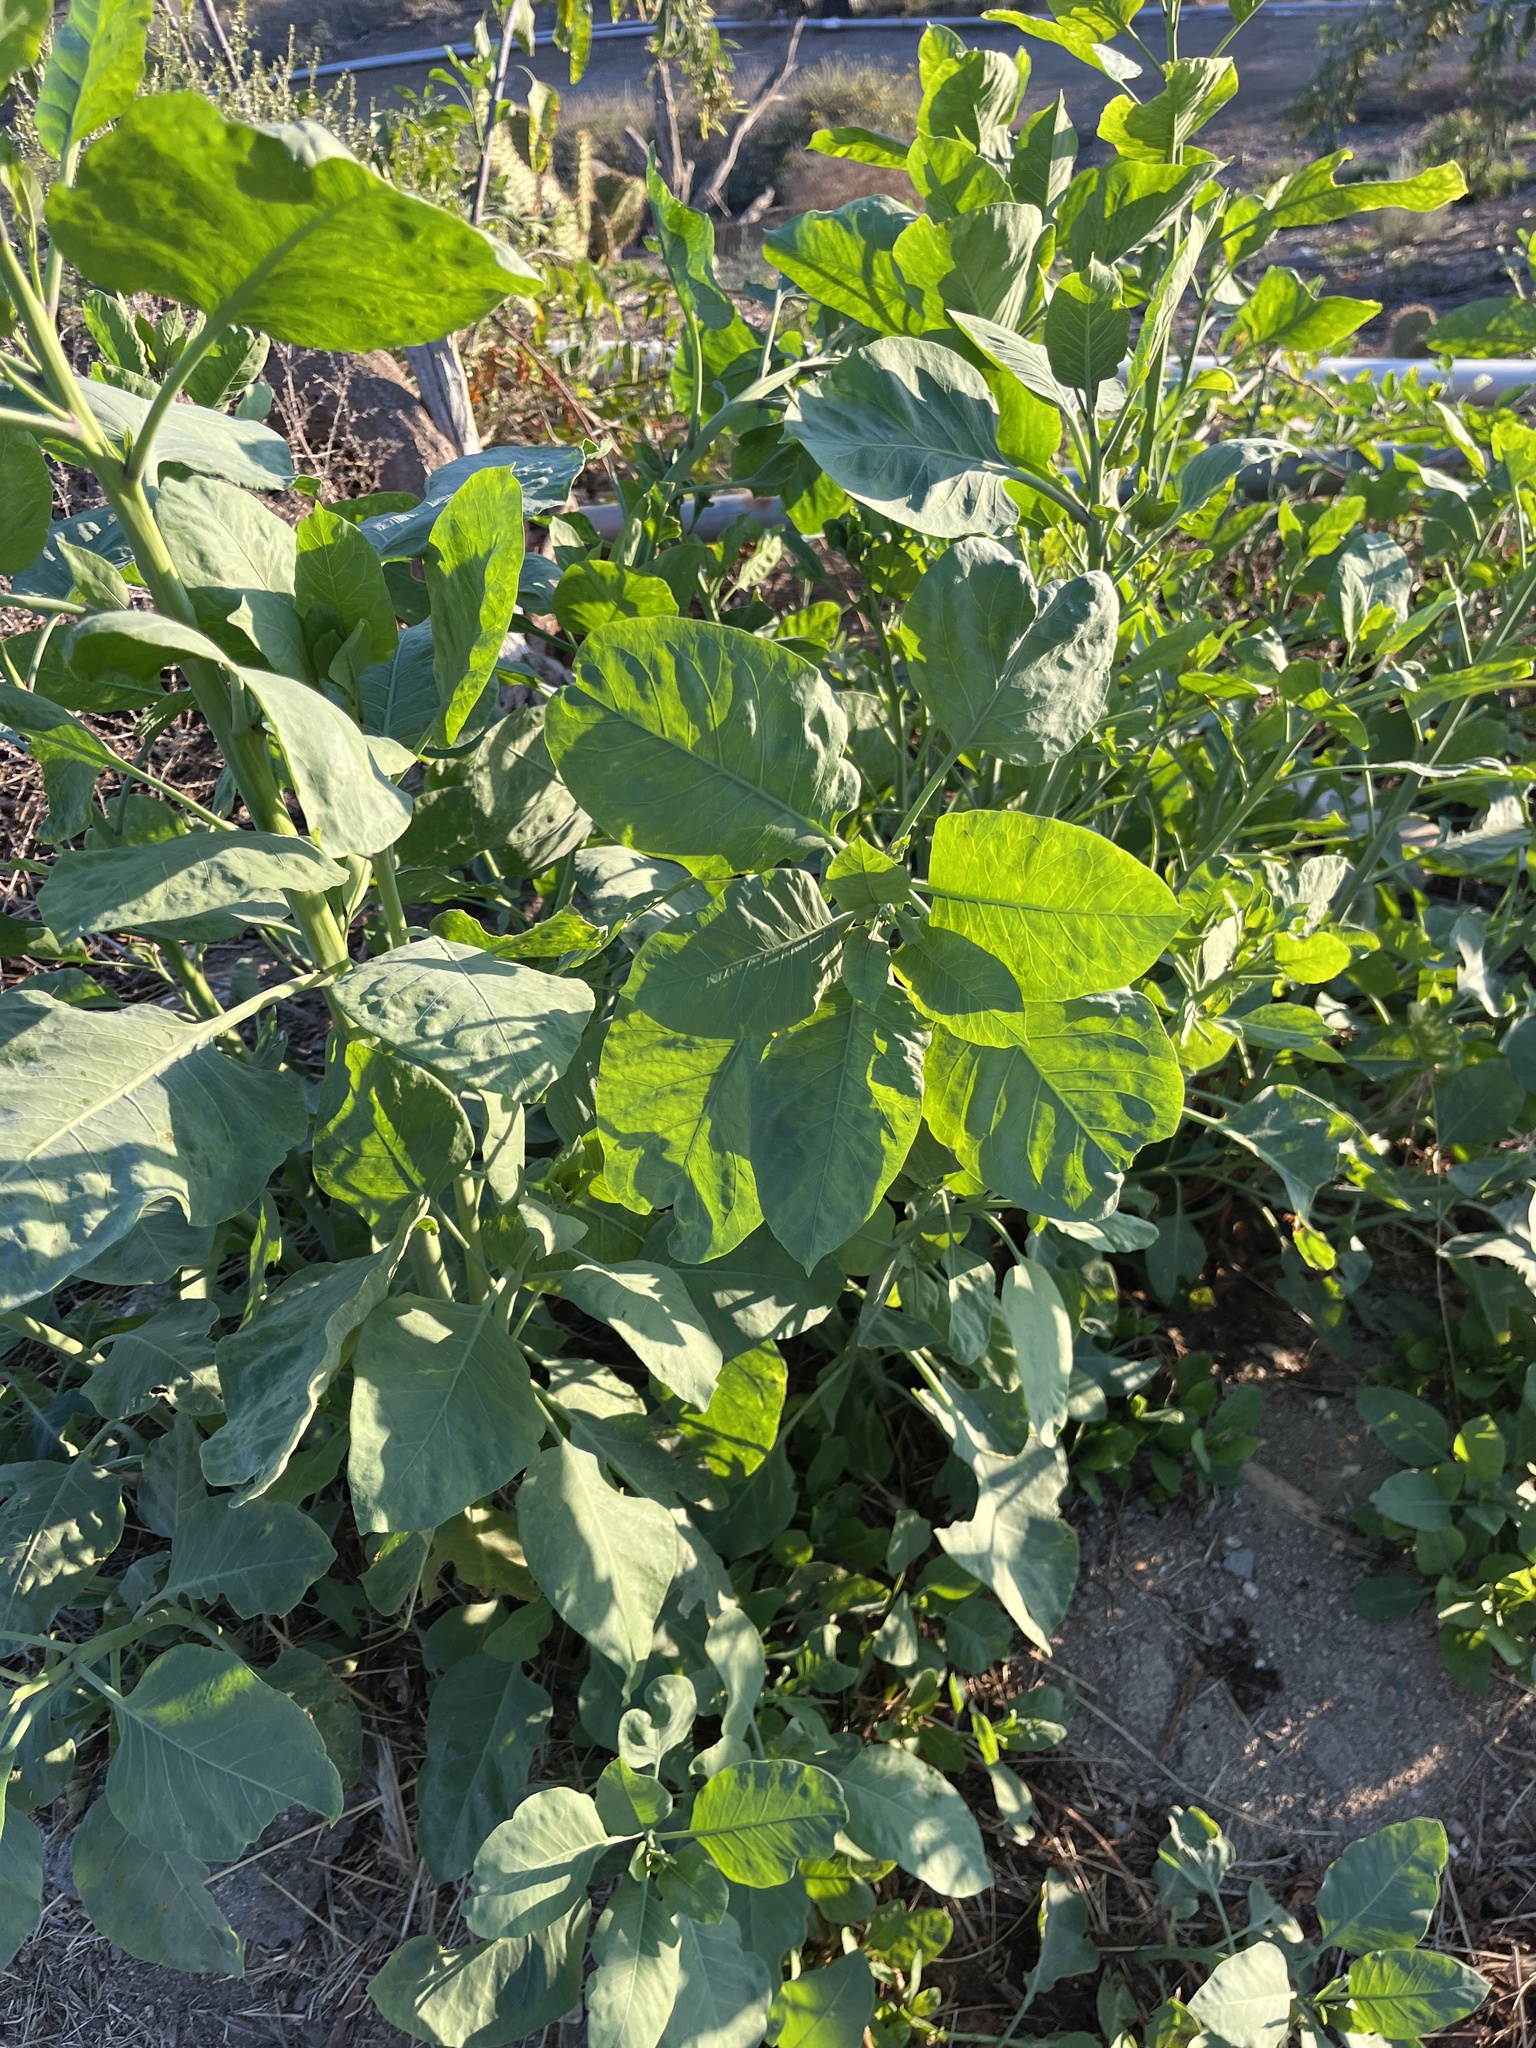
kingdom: Plantae
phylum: Tracheophyta
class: Magnoliopsida
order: Solanales
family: Solanaceae
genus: Nicotiana
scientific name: Nicotiana glauca
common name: Tree tobacco
